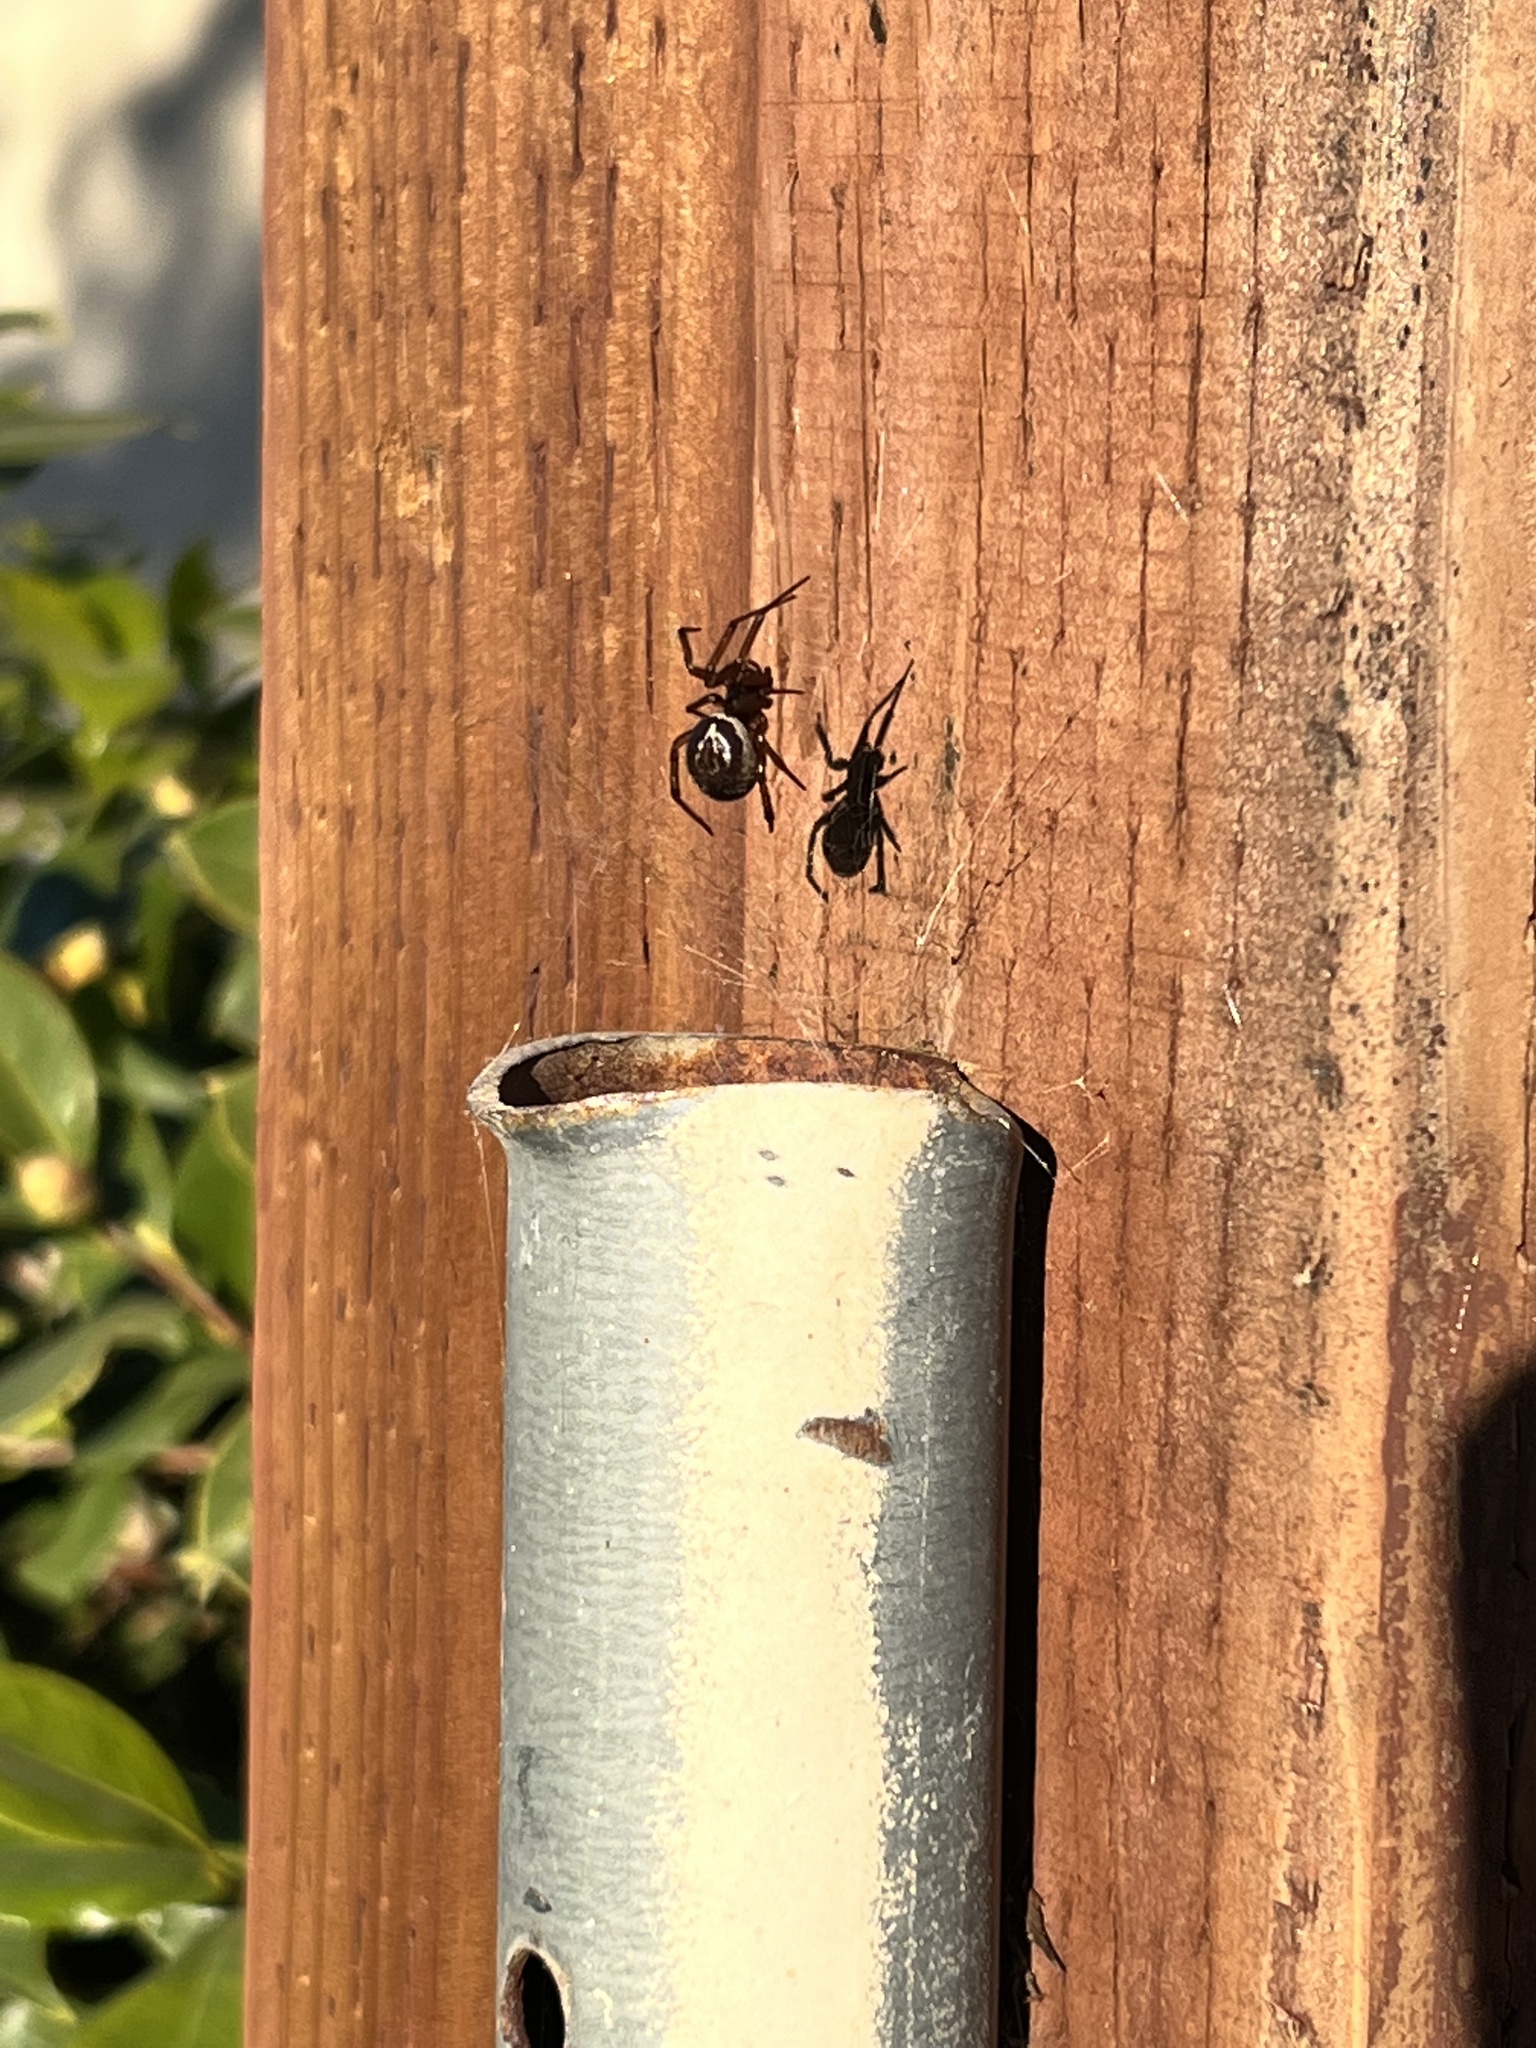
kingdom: Animalia
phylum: Arthropoda
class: Arachnida
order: Araneae
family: Theridiidae
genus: Steatoda
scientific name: Steatoda nobilis
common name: Cobweb weaver
